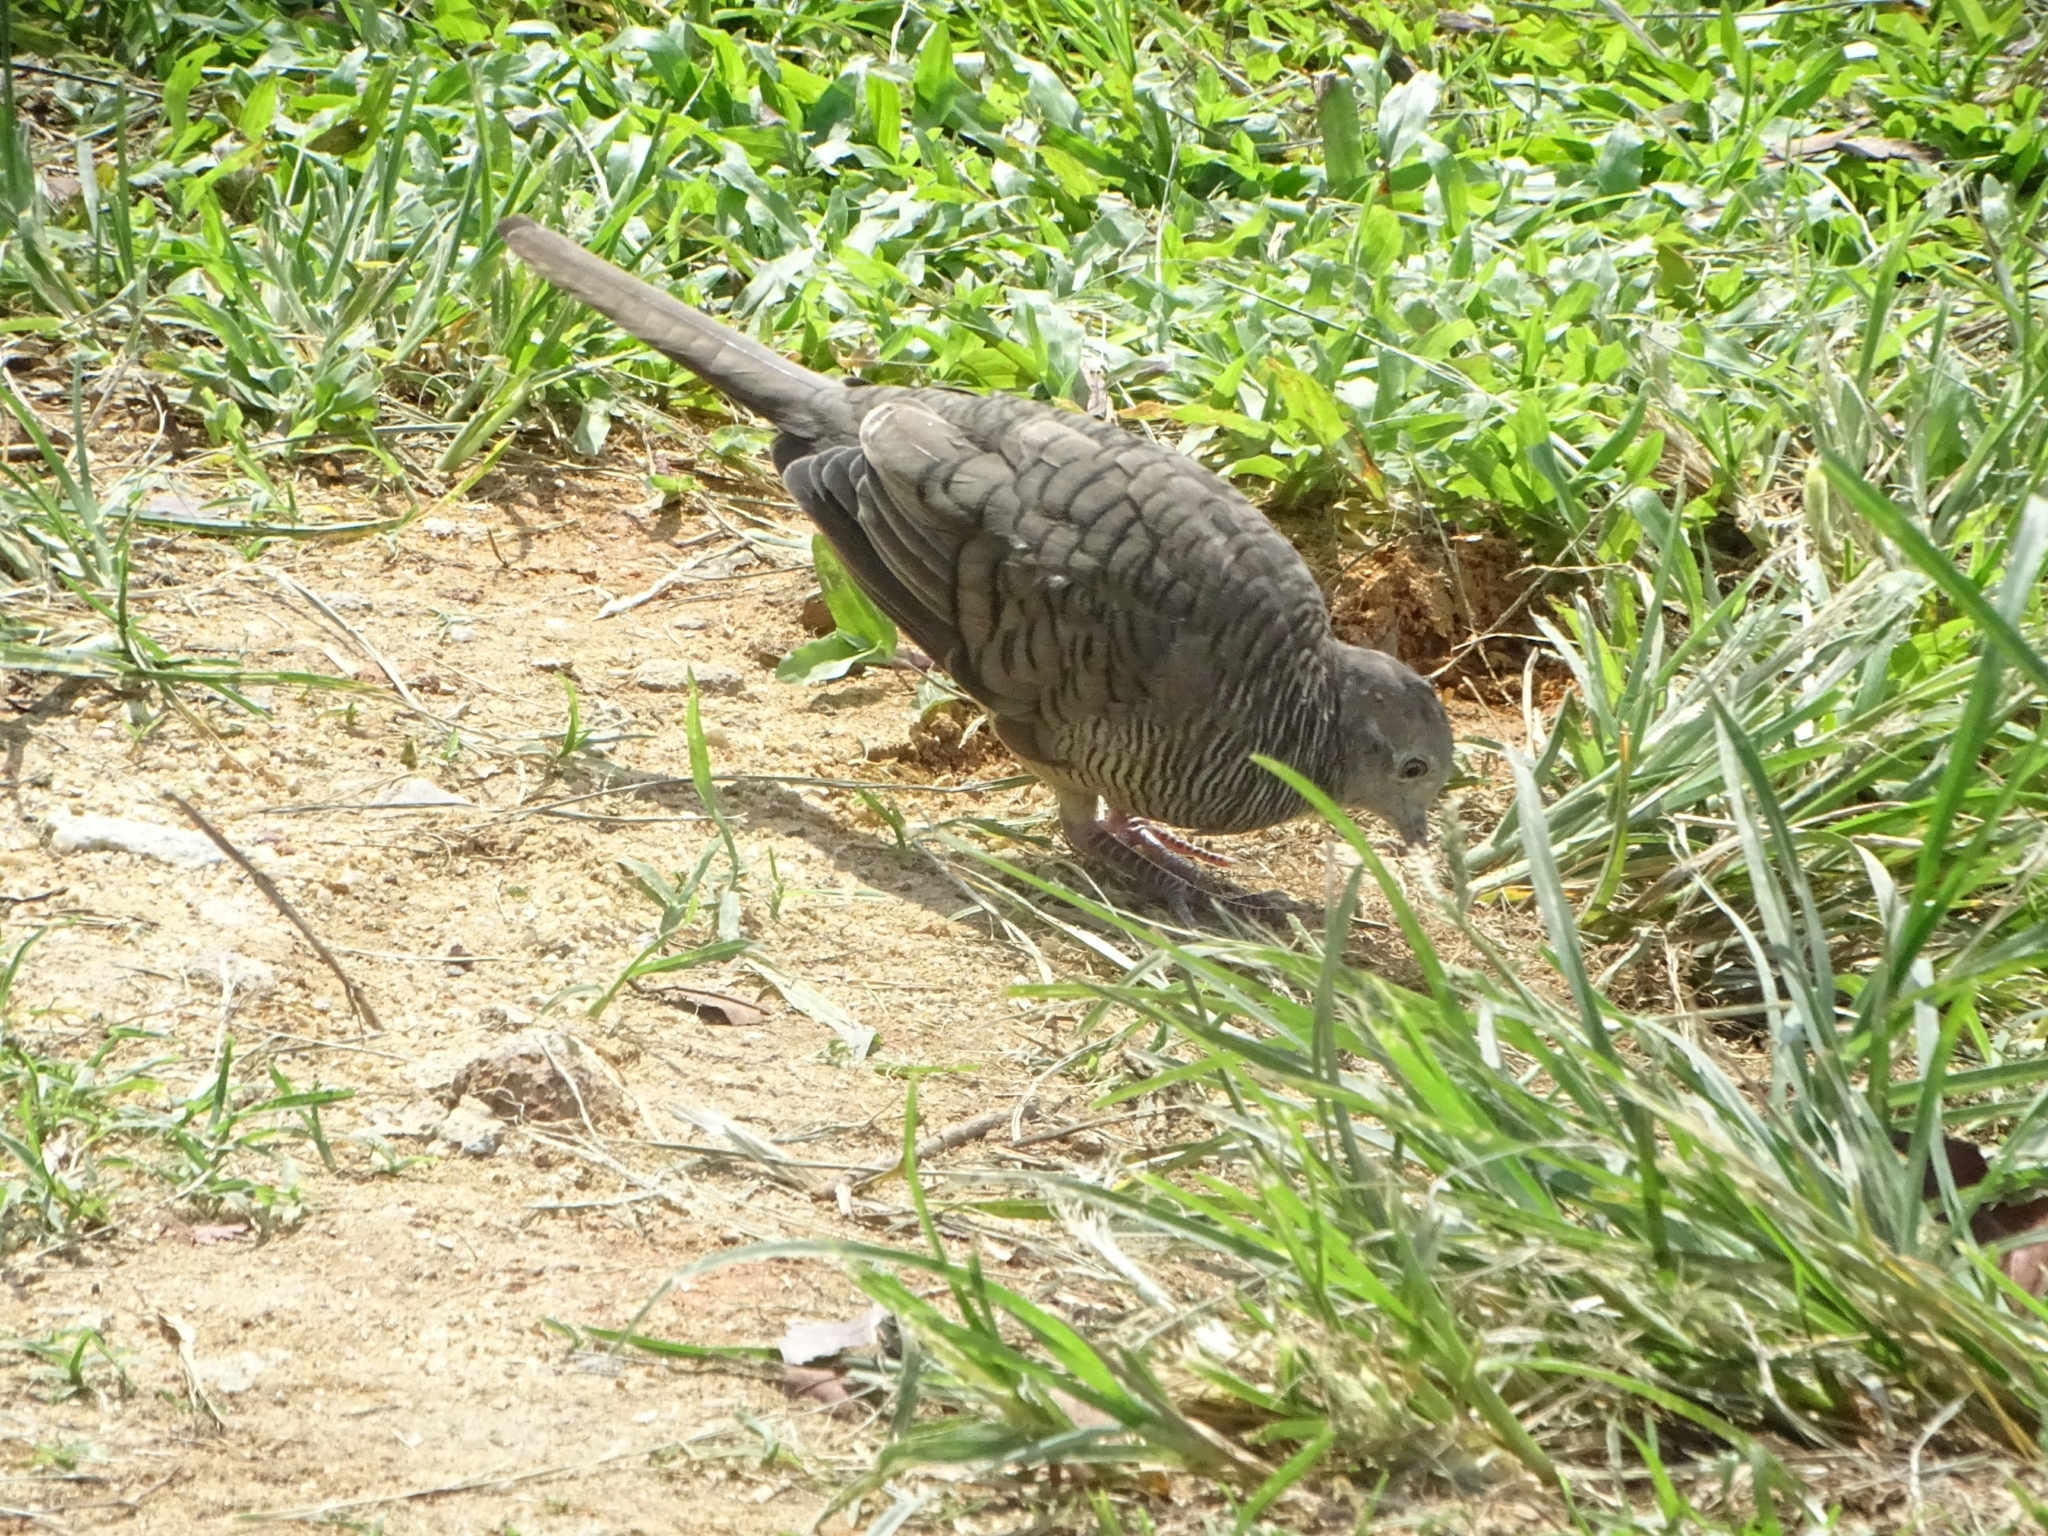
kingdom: Animalia
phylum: Chordata
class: Aves
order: Columbiformes
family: Columbidae
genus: Geopelia
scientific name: Geopelia striata
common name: Zebra dove
